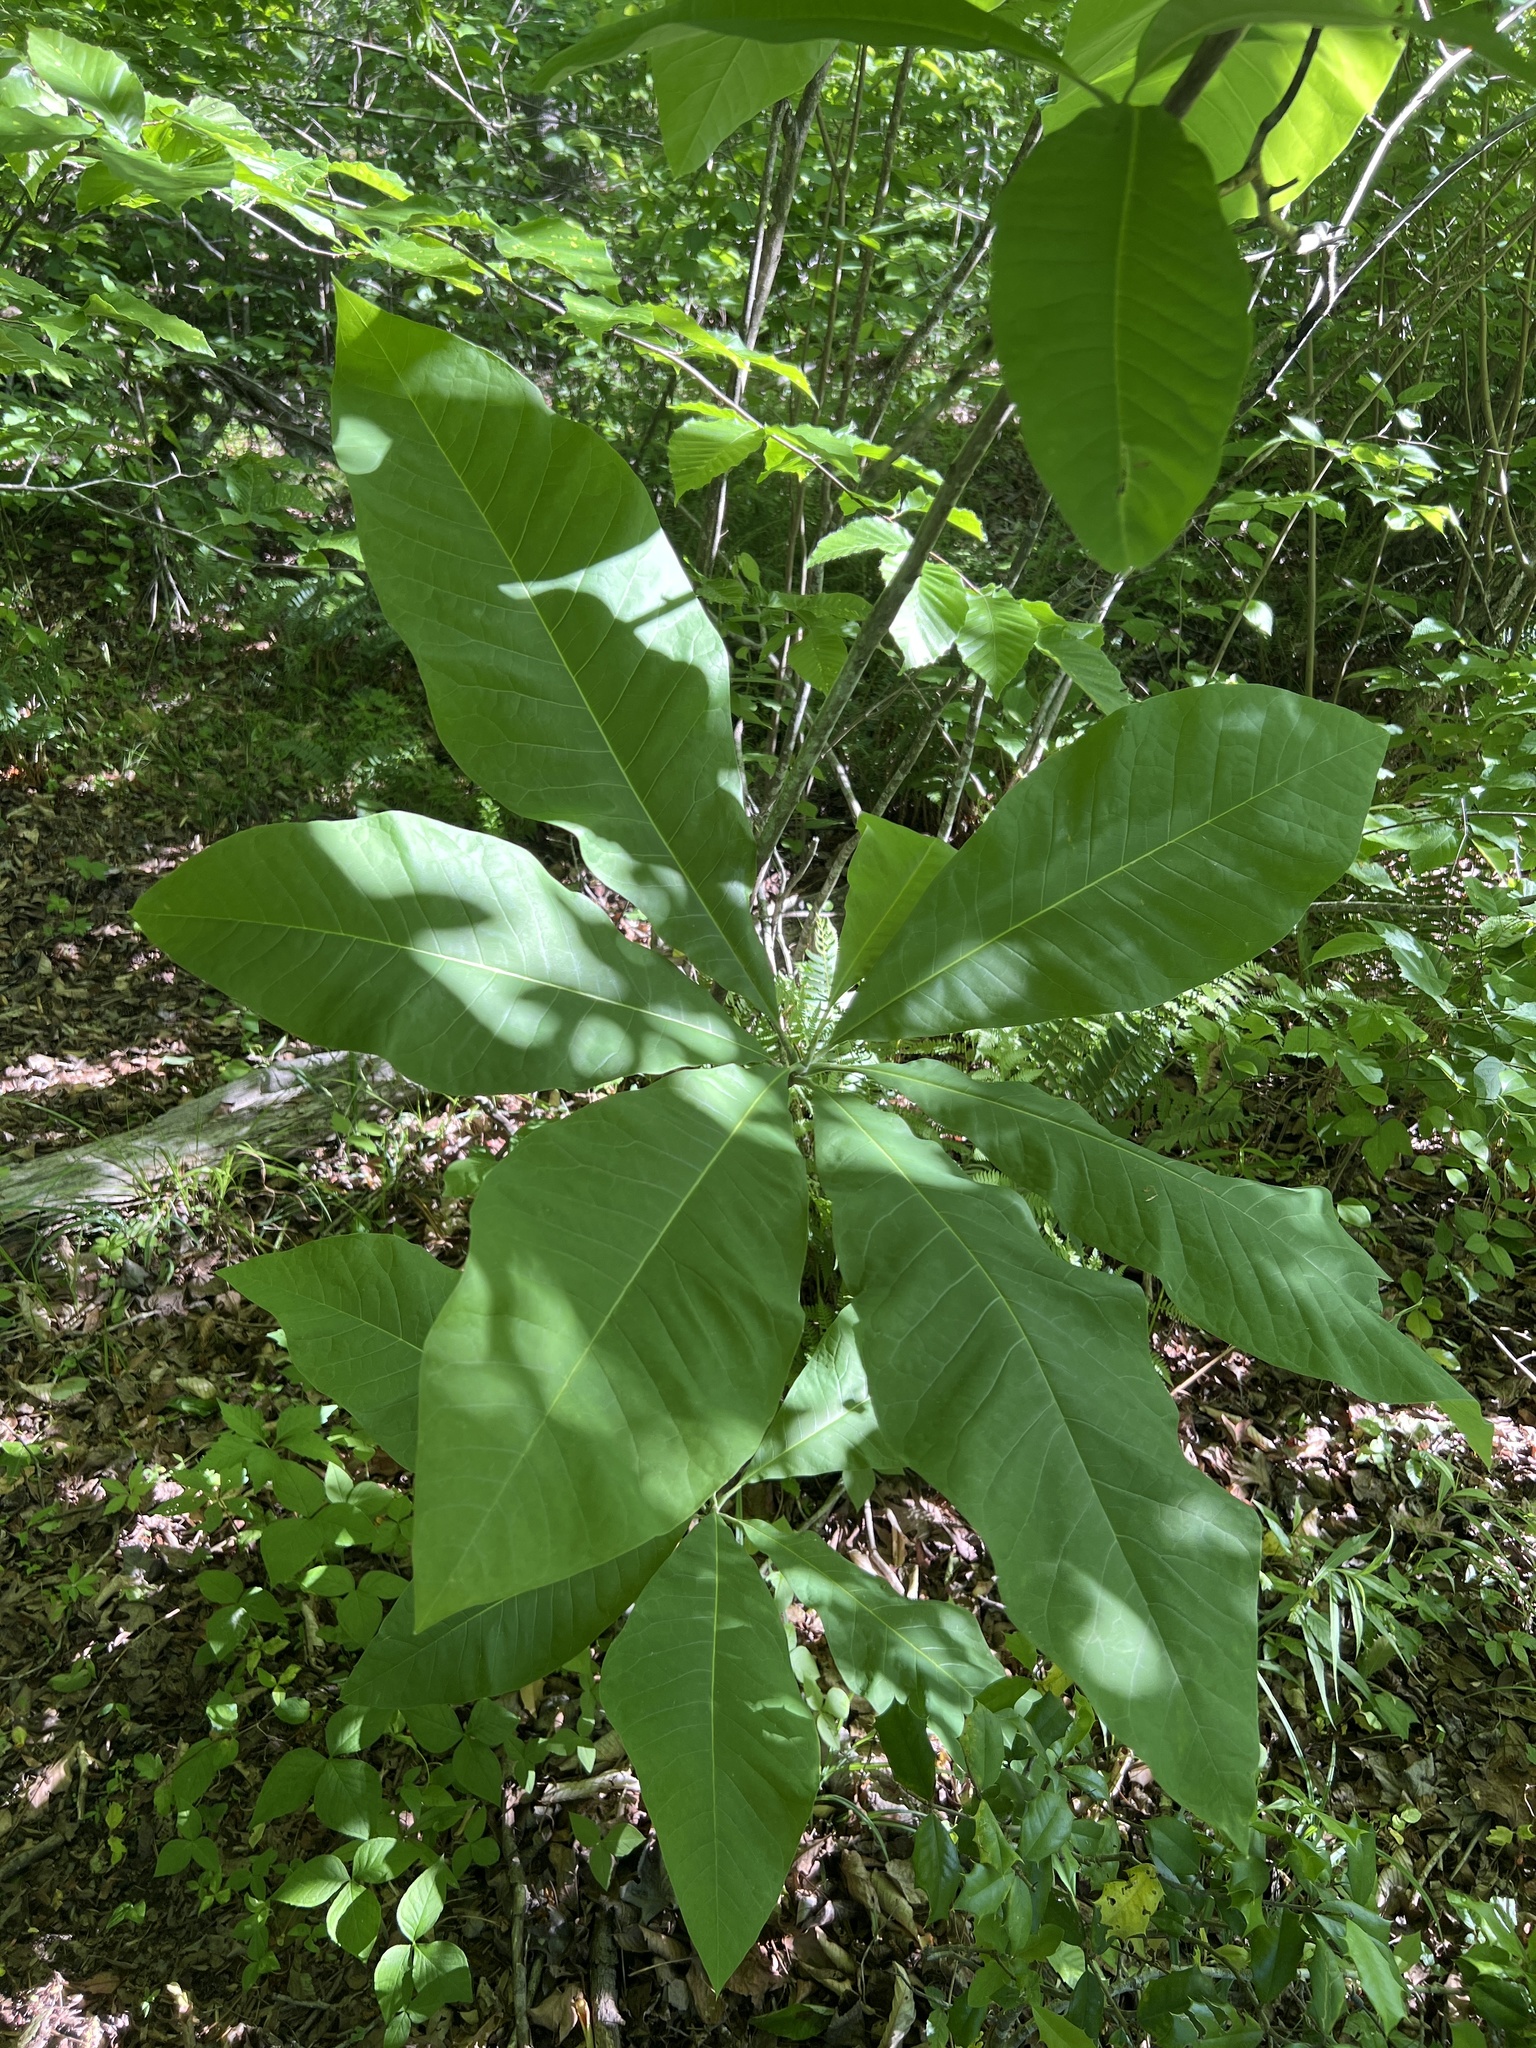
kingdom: Plantae
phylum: Tracheophyta
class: Magnoliopsida
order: Magnoliales
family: Magnoliaceae
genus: Magnolia
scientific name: Magnolia tripetala
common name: Umbrella magnolia
